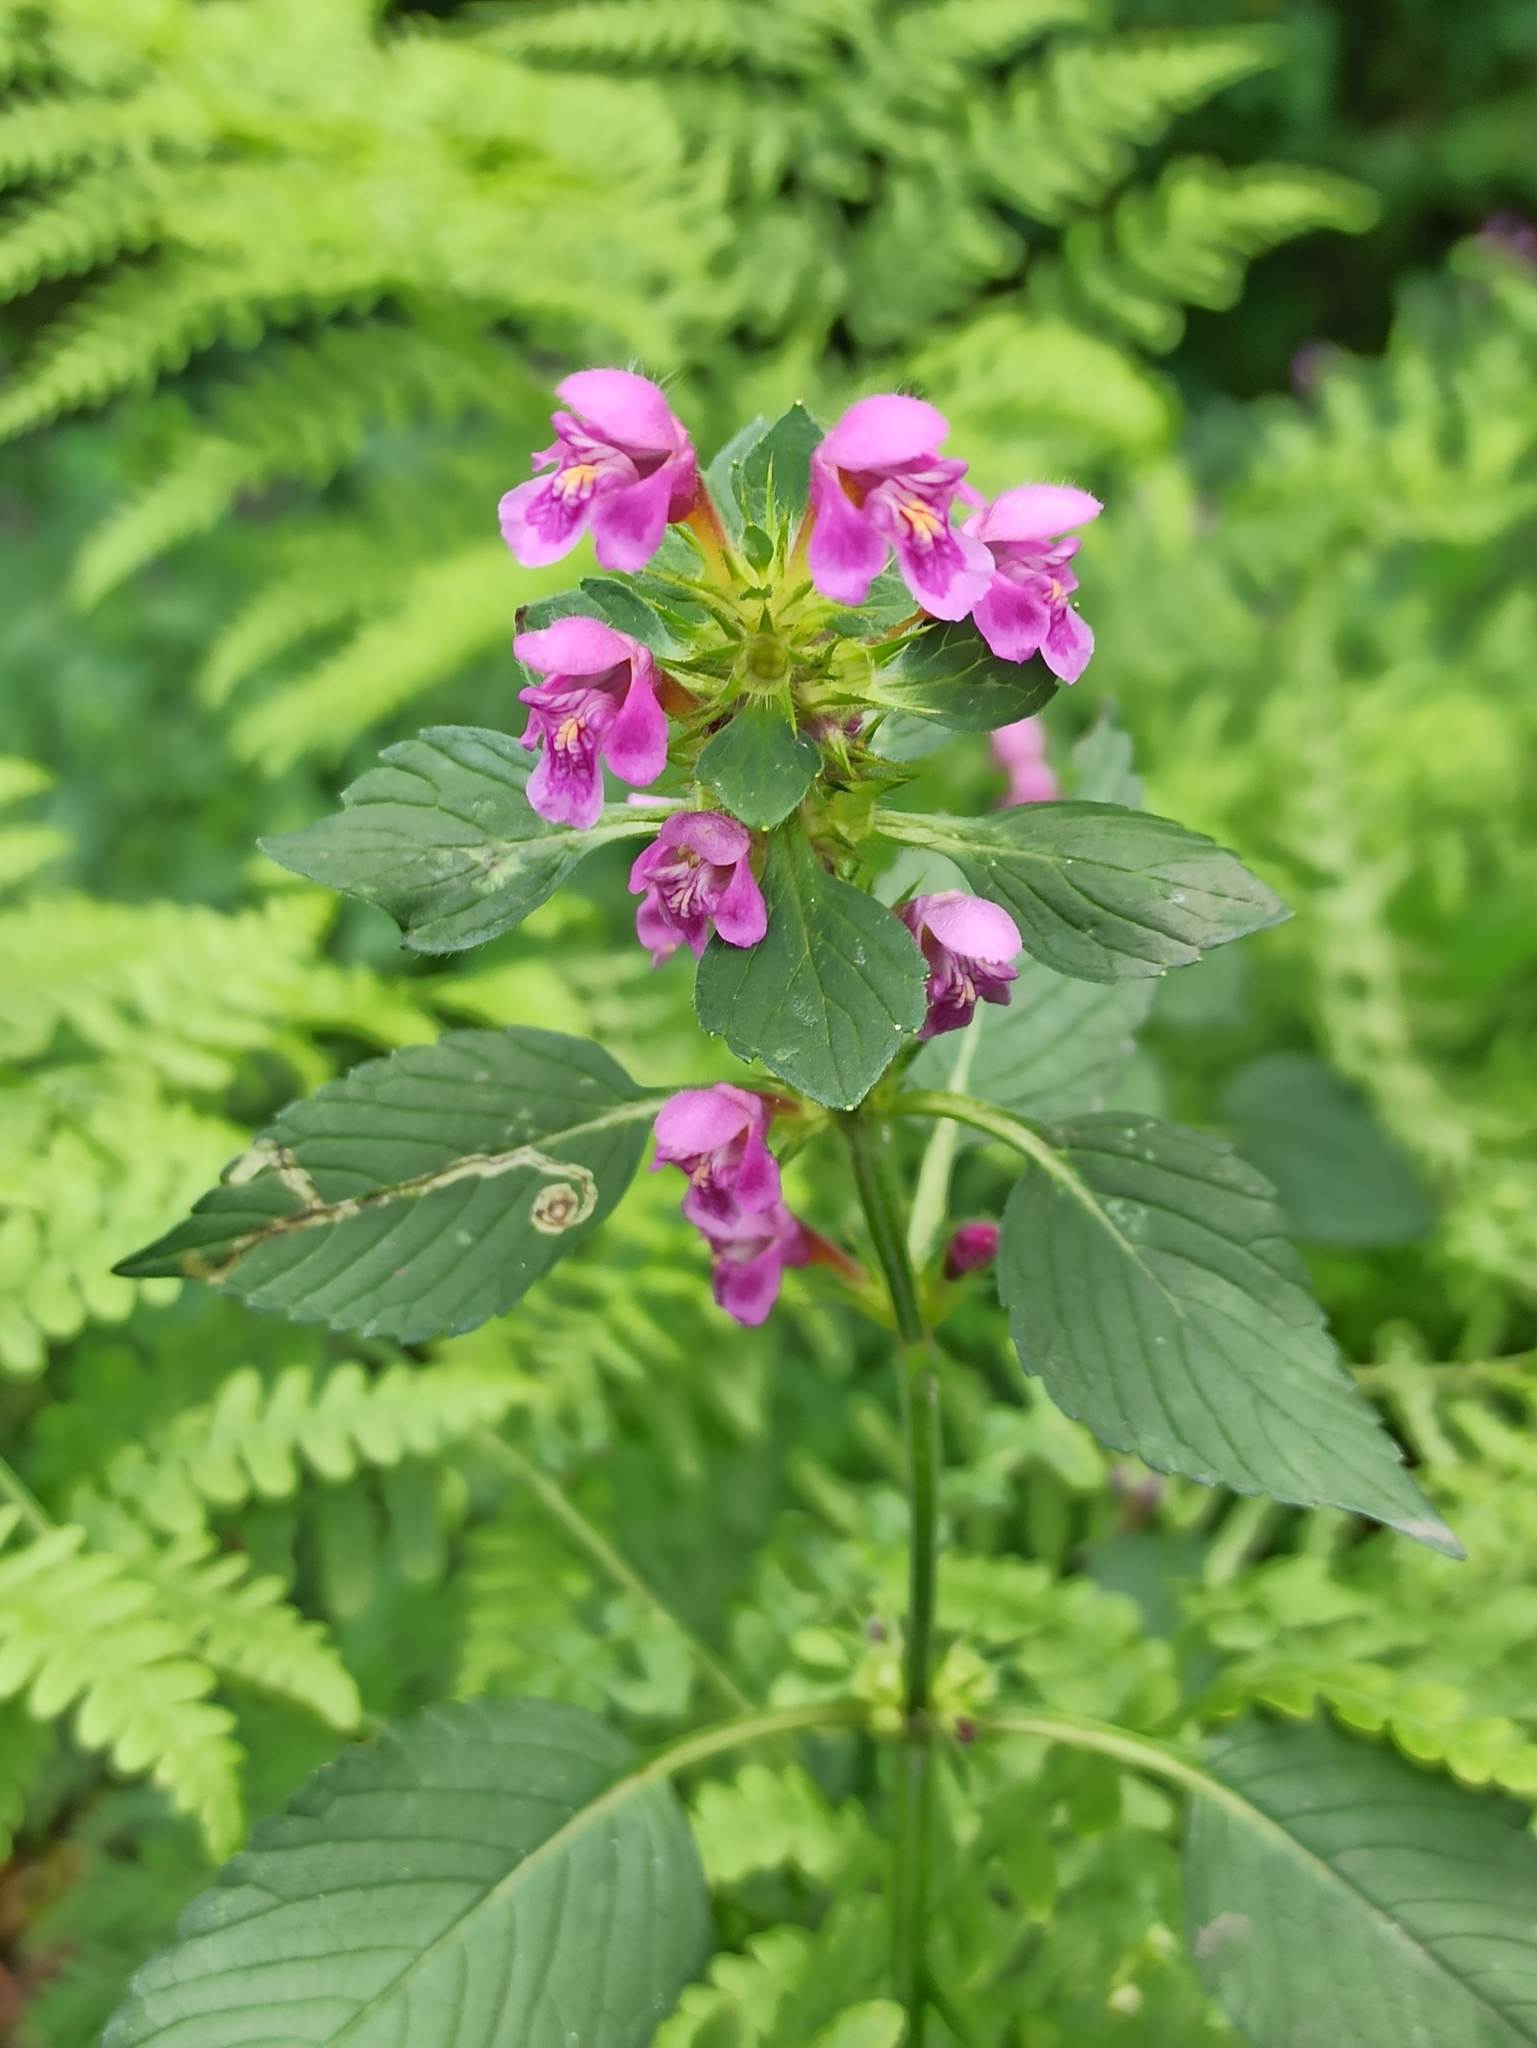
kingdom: Plantae
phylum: Tracheophyta
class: Magnoliopsida
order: Lamiales
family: Lamiaceae
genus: Galeopsis
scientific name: Galeopsis pubescens
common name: Downy hemp-nettle
